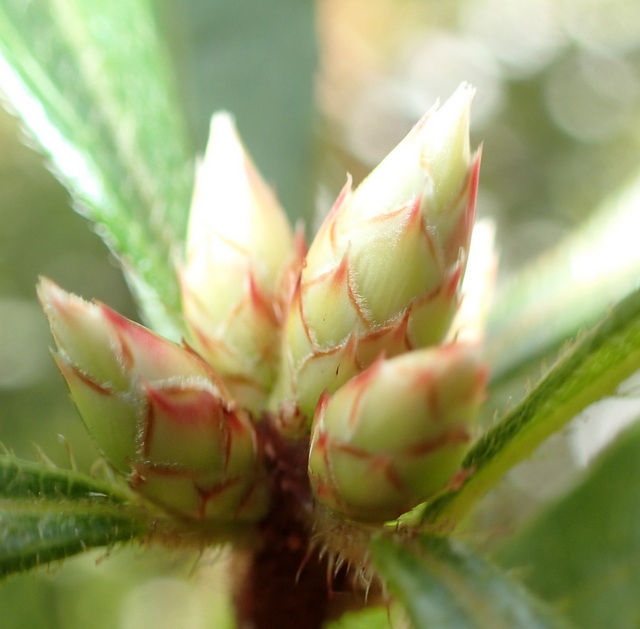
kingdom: Plantae
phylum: Tracheophyta
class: Magnoliopsida
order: Ericales
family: Ericaceae
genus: Rhododendron
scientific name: Rhododendron serrulatum
